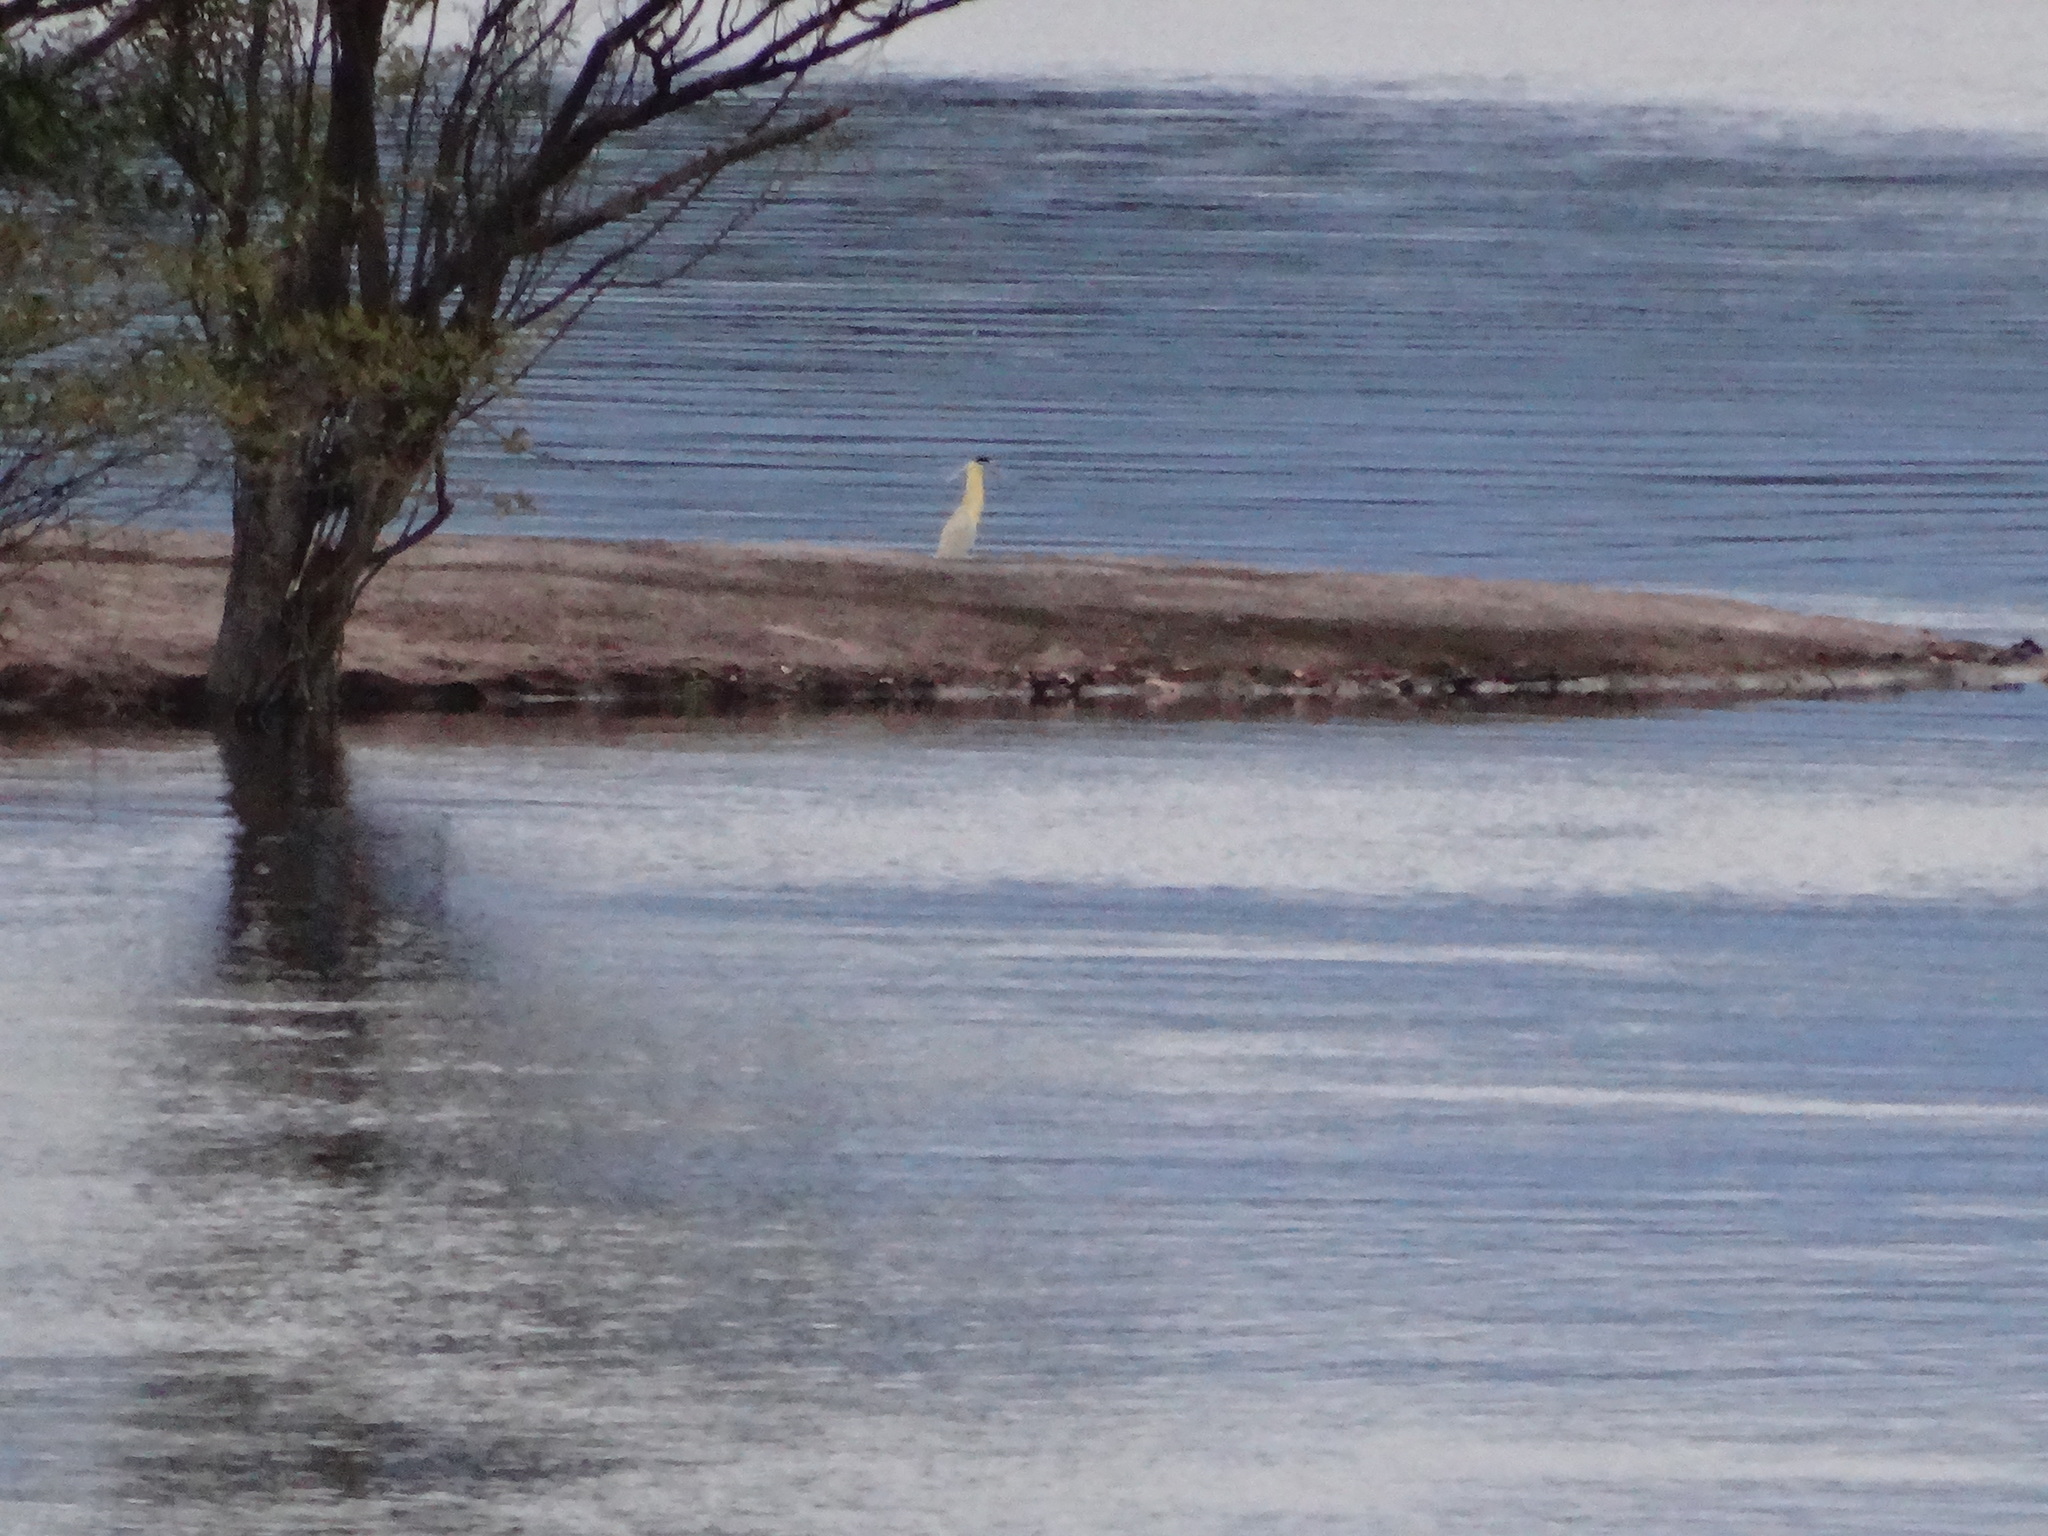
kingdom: Animalia
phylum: Chordata
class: Aves
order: Pelecaniformes
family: Ardeidae
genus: Pilherodius
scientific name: Pilherodius pileatus
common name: Capped heron
